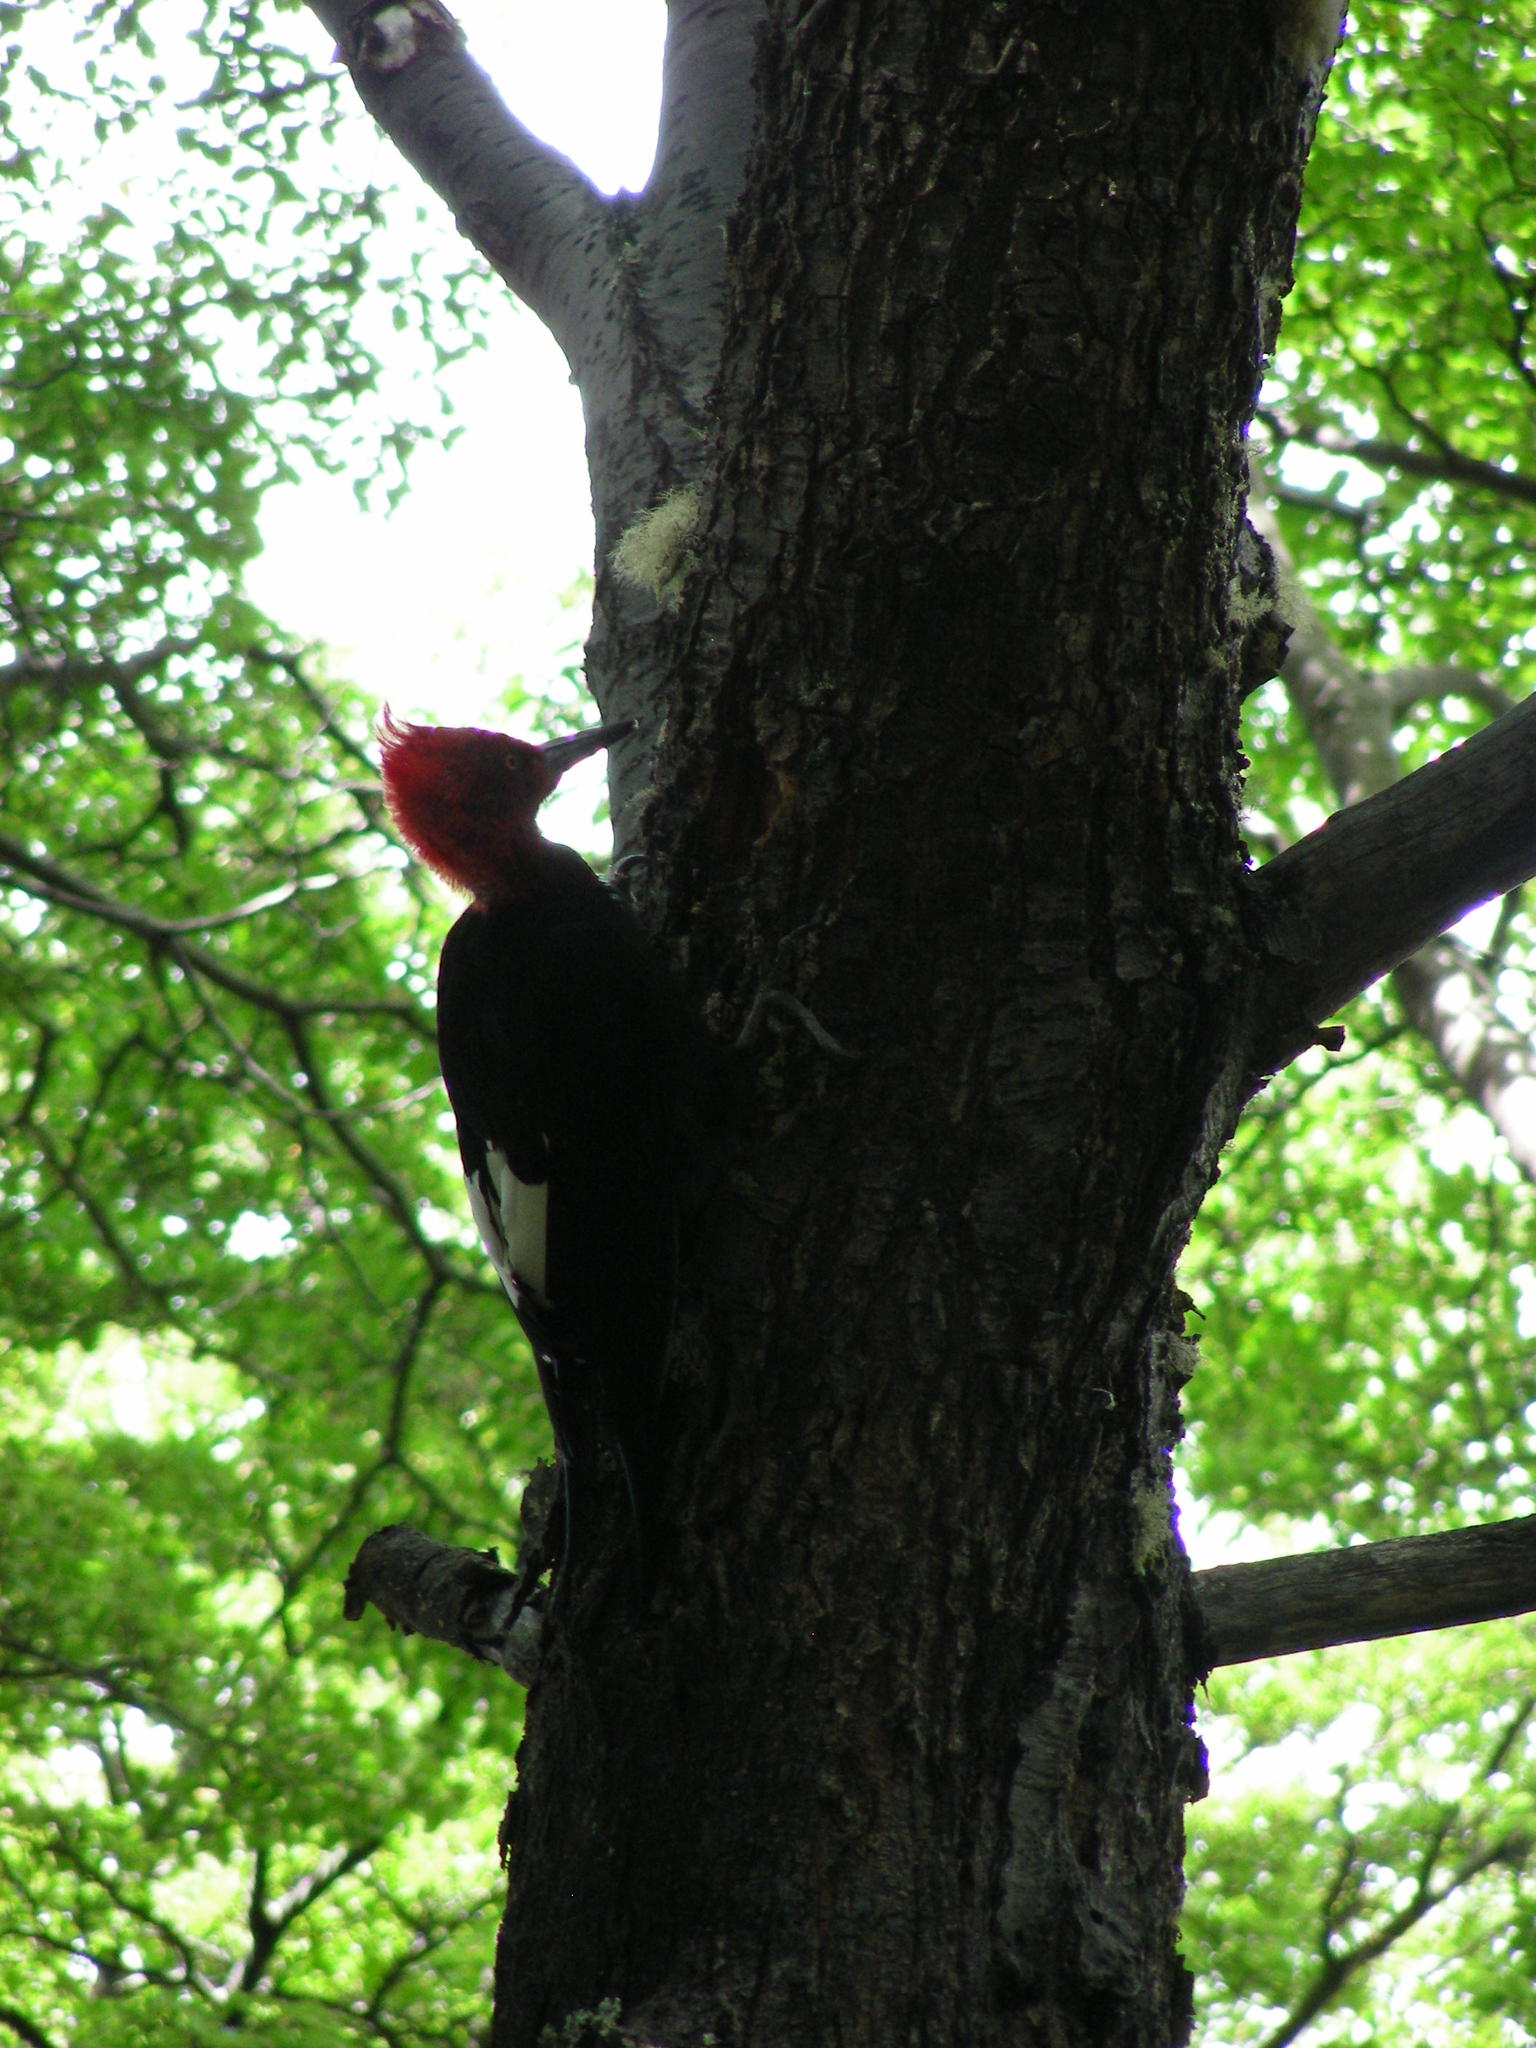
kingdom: Animalia
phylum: Chordata
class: Aves
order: Piciformes
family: Picidae
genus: Campephilus
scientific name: Campephilus magellanicus
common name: Magellanic woodpecker
